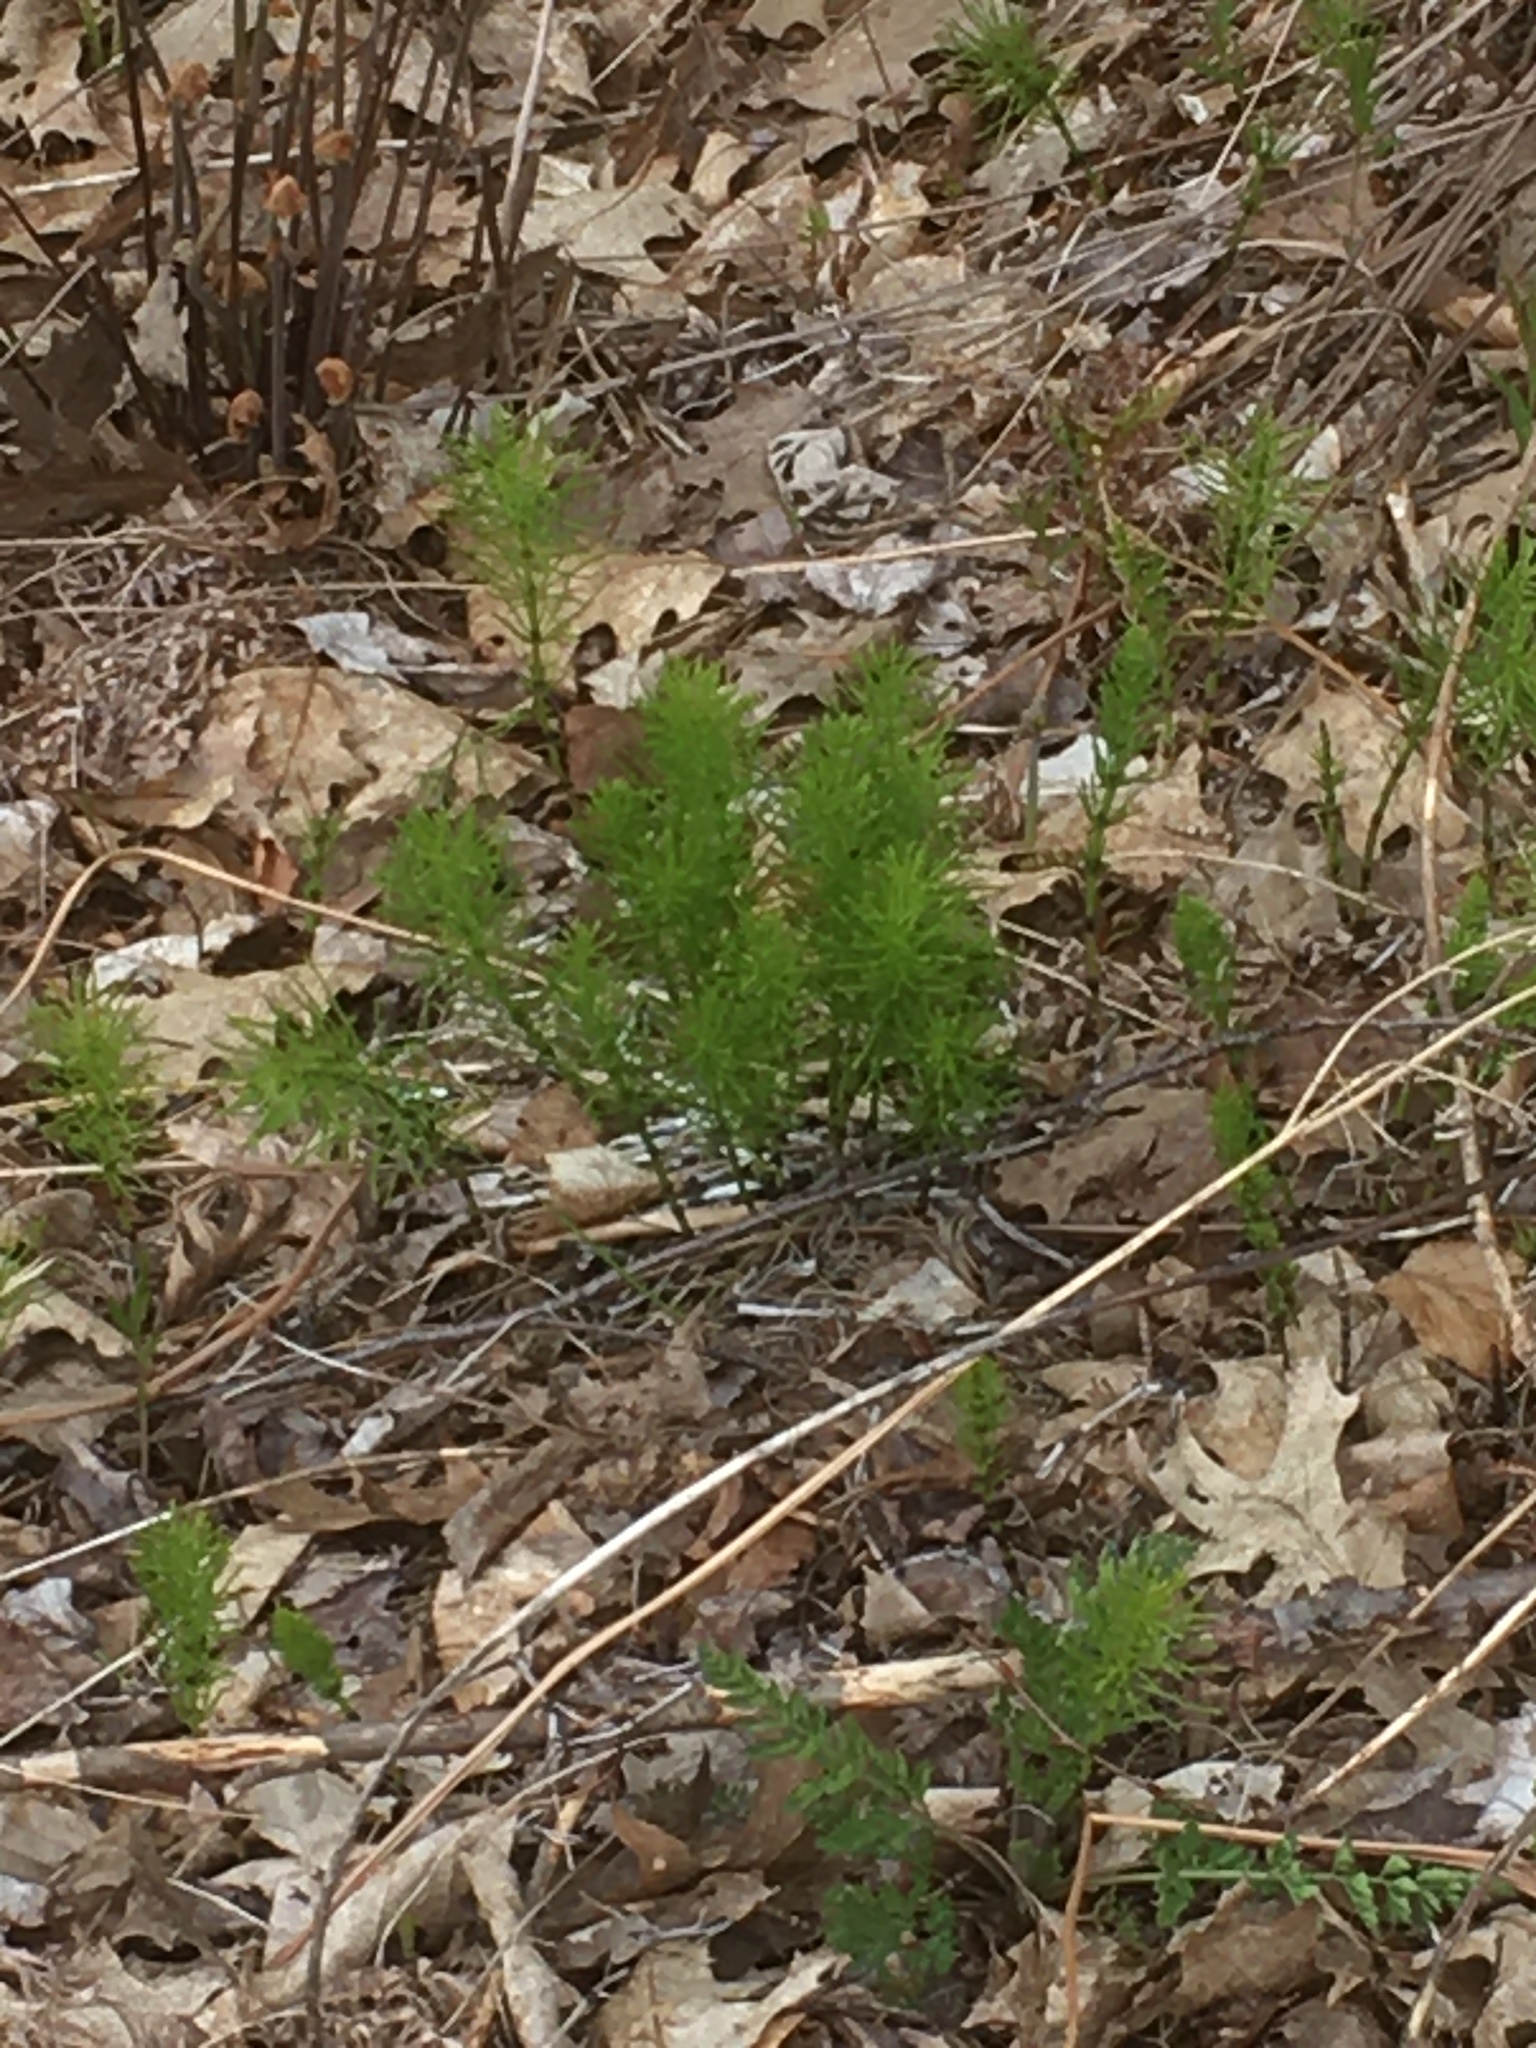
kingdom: Plantae
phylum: Tracheophyta
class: Polypodiopsida
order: Equisetales
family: Equisetaceae
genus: Equisetum
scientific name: Equisetum arvense
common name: Field horsetail
